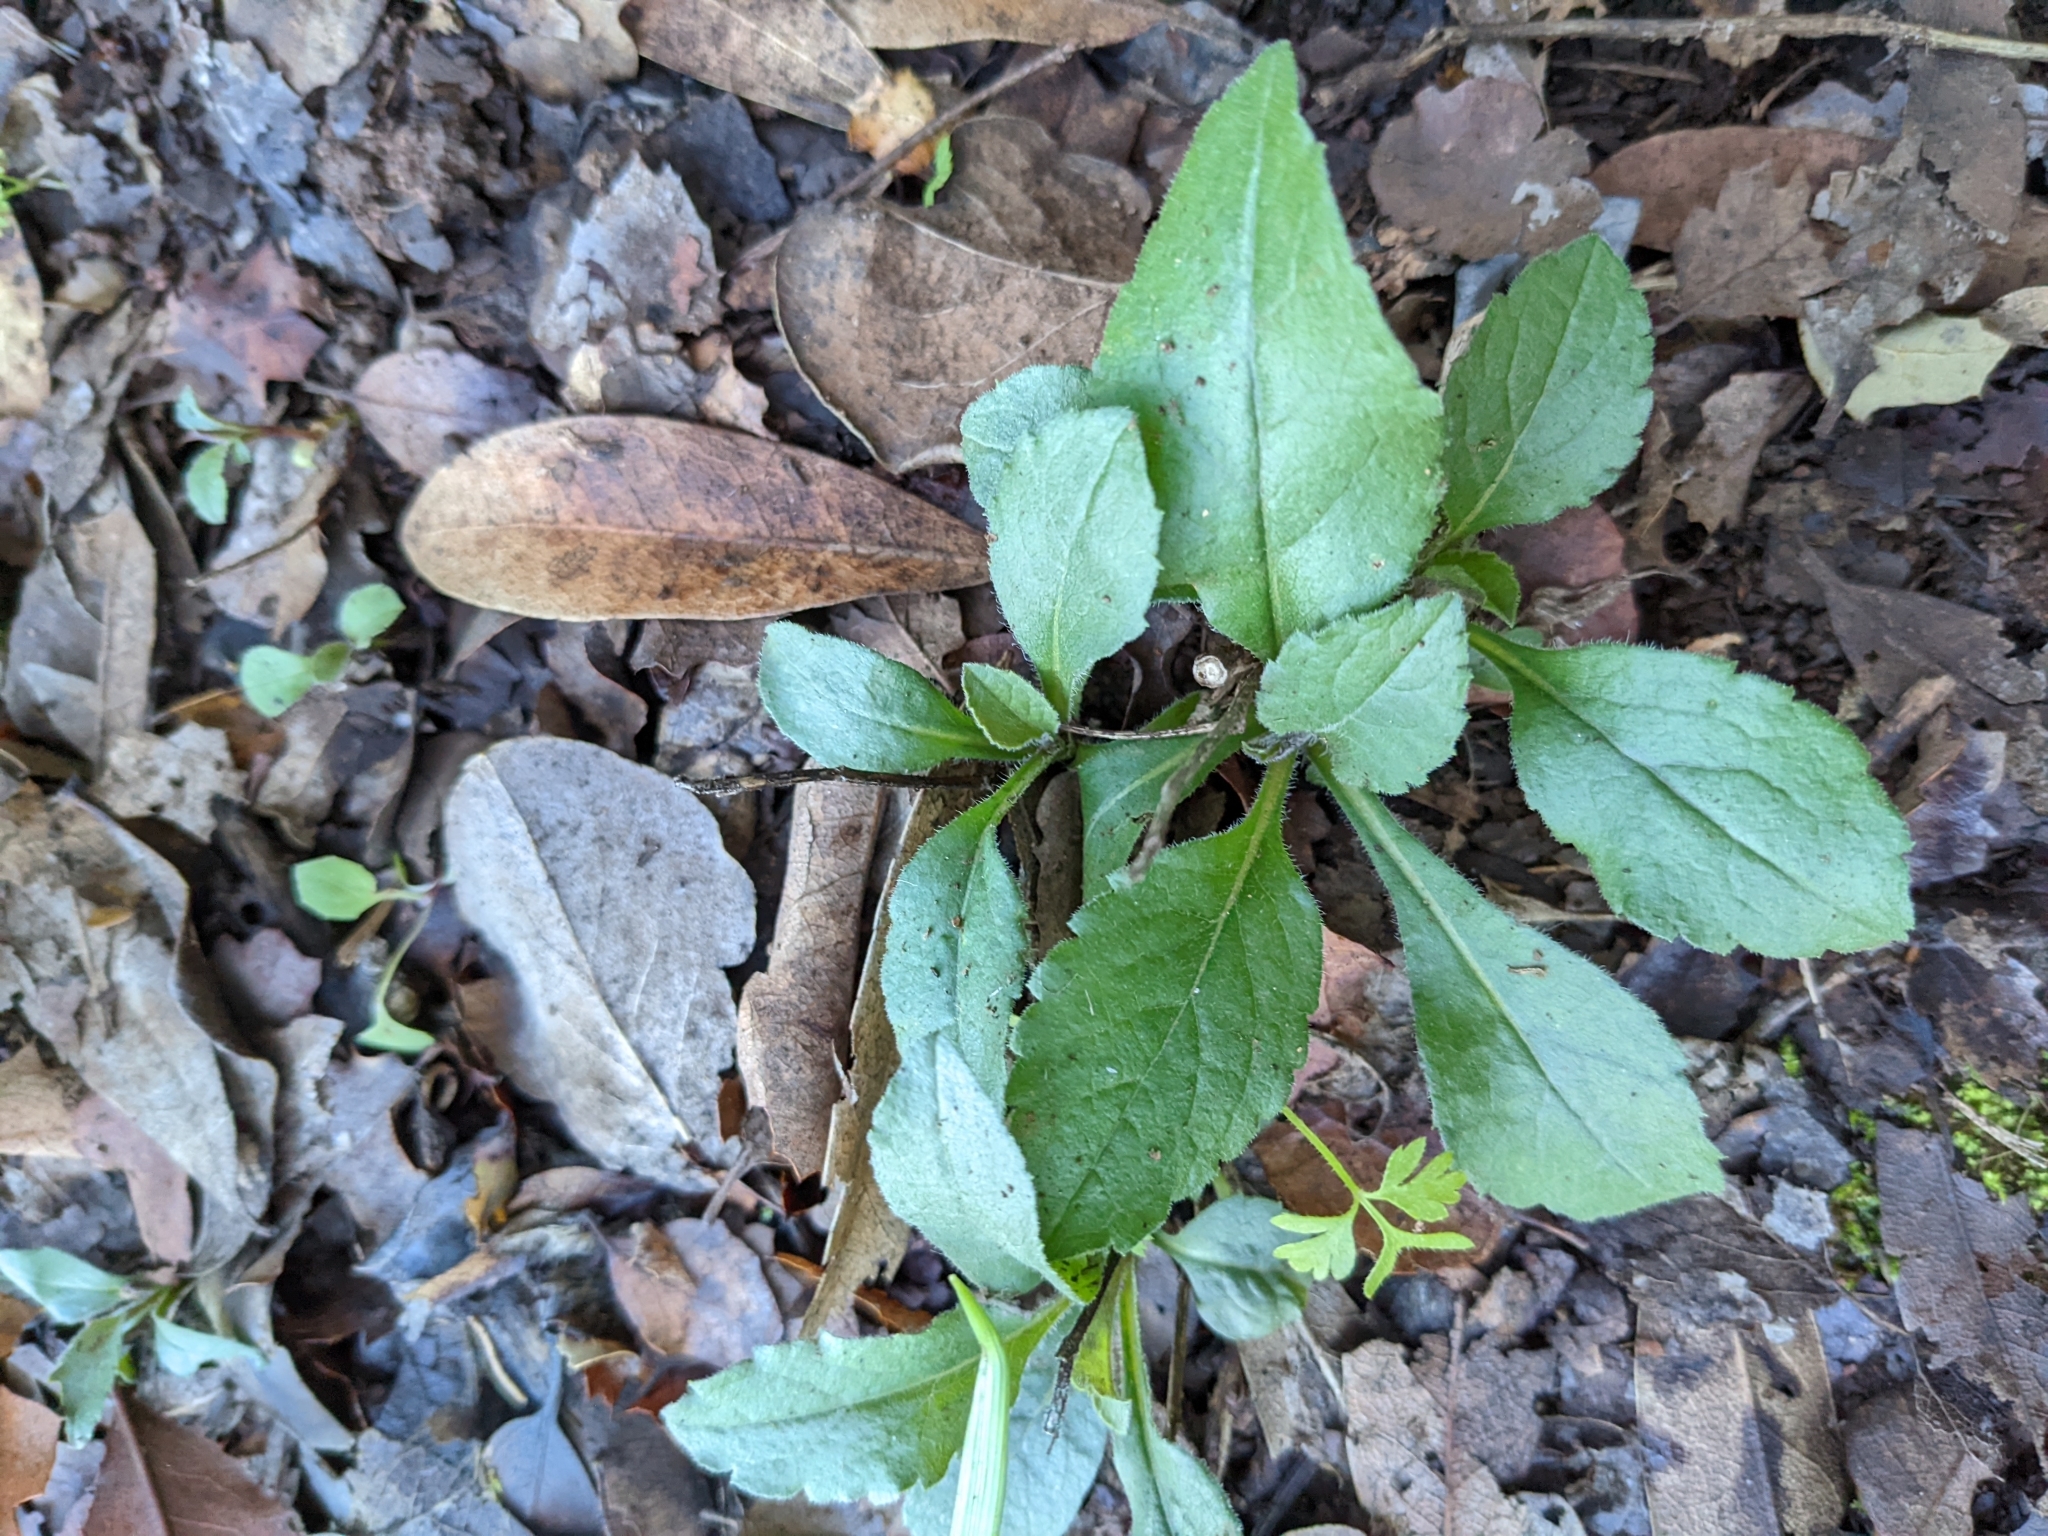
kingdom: Plantae
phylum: Tracheophyta
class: Magnoliopsida
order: Asterales
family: Asteraceae
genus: Eurybia
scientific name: Eurybia radulina
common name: Rough-leaved aster
